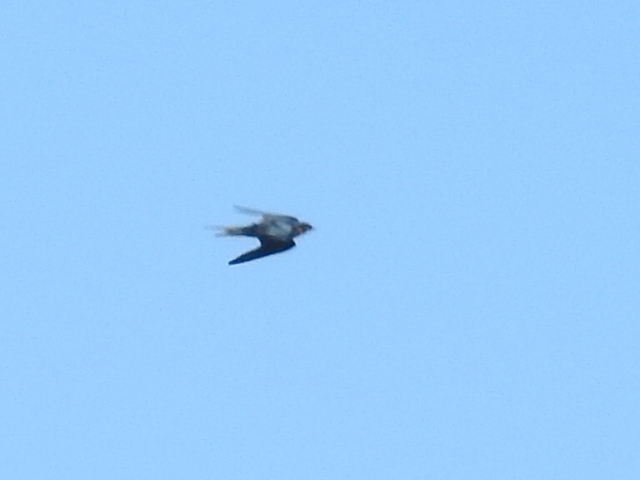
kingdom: Animalia
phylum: Chordata
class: Aves
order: Passeriformes
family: Hirundinidae
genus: Hirundo
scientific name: Hirundo rustica
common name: Barn swallow
